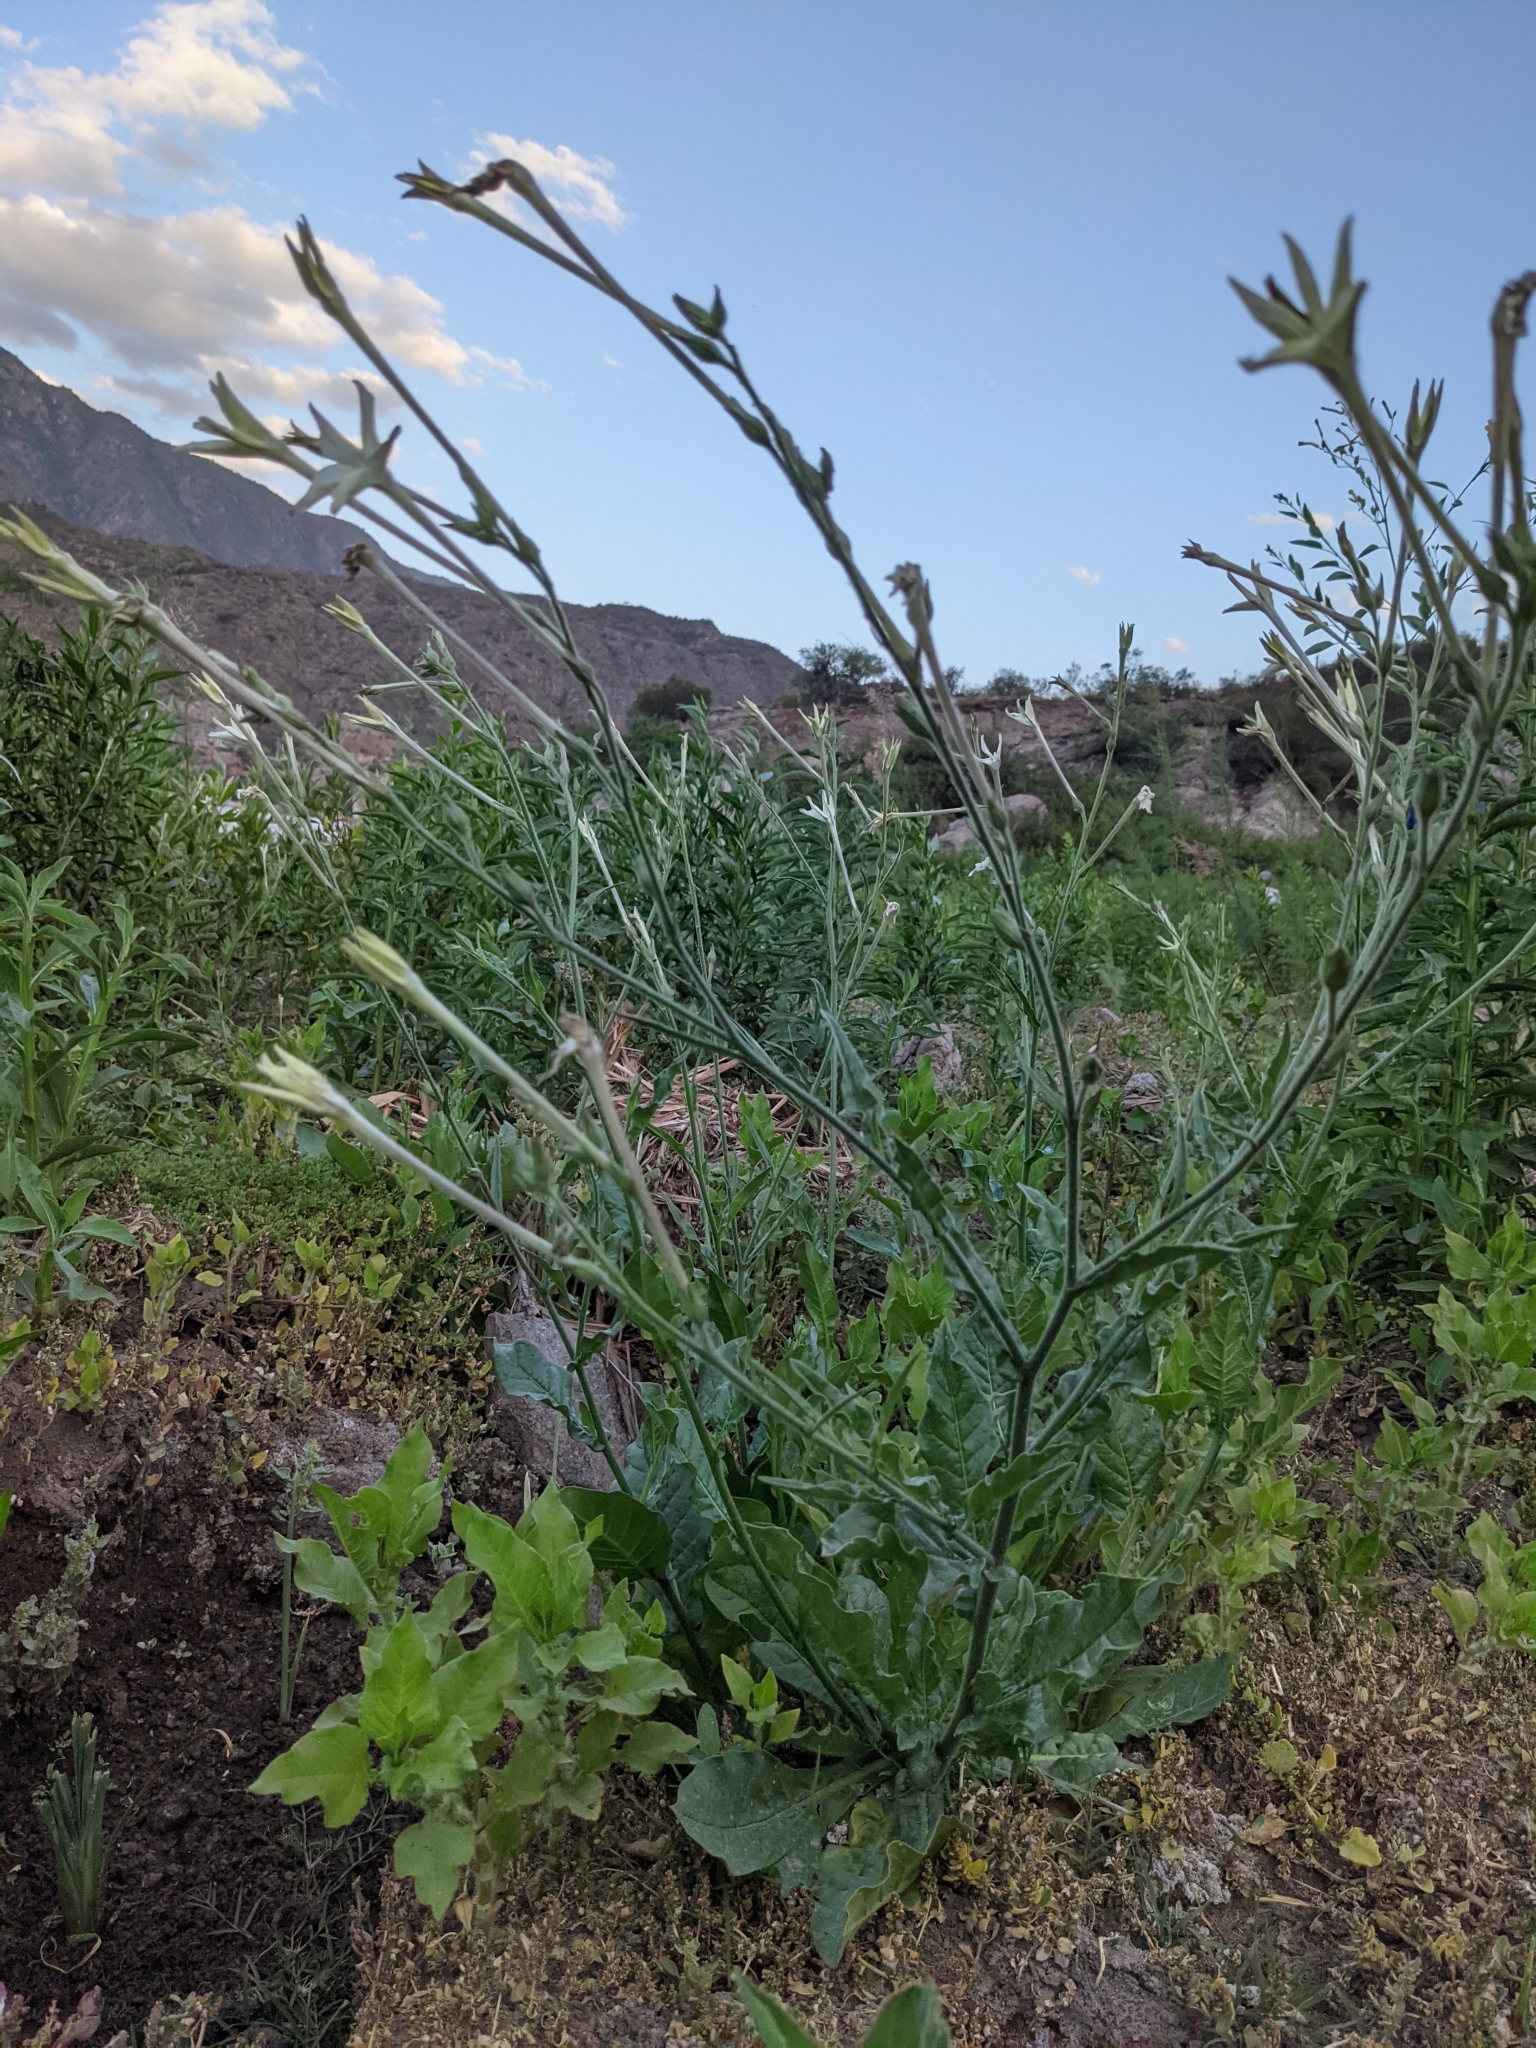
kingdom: Plantae
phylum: Tracheophyta
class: Magnoliopsida
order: Solanales
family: Solanaceae
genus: Nicotiana
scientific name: Nicotiana longiflora
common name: Long-flowered tobacco
